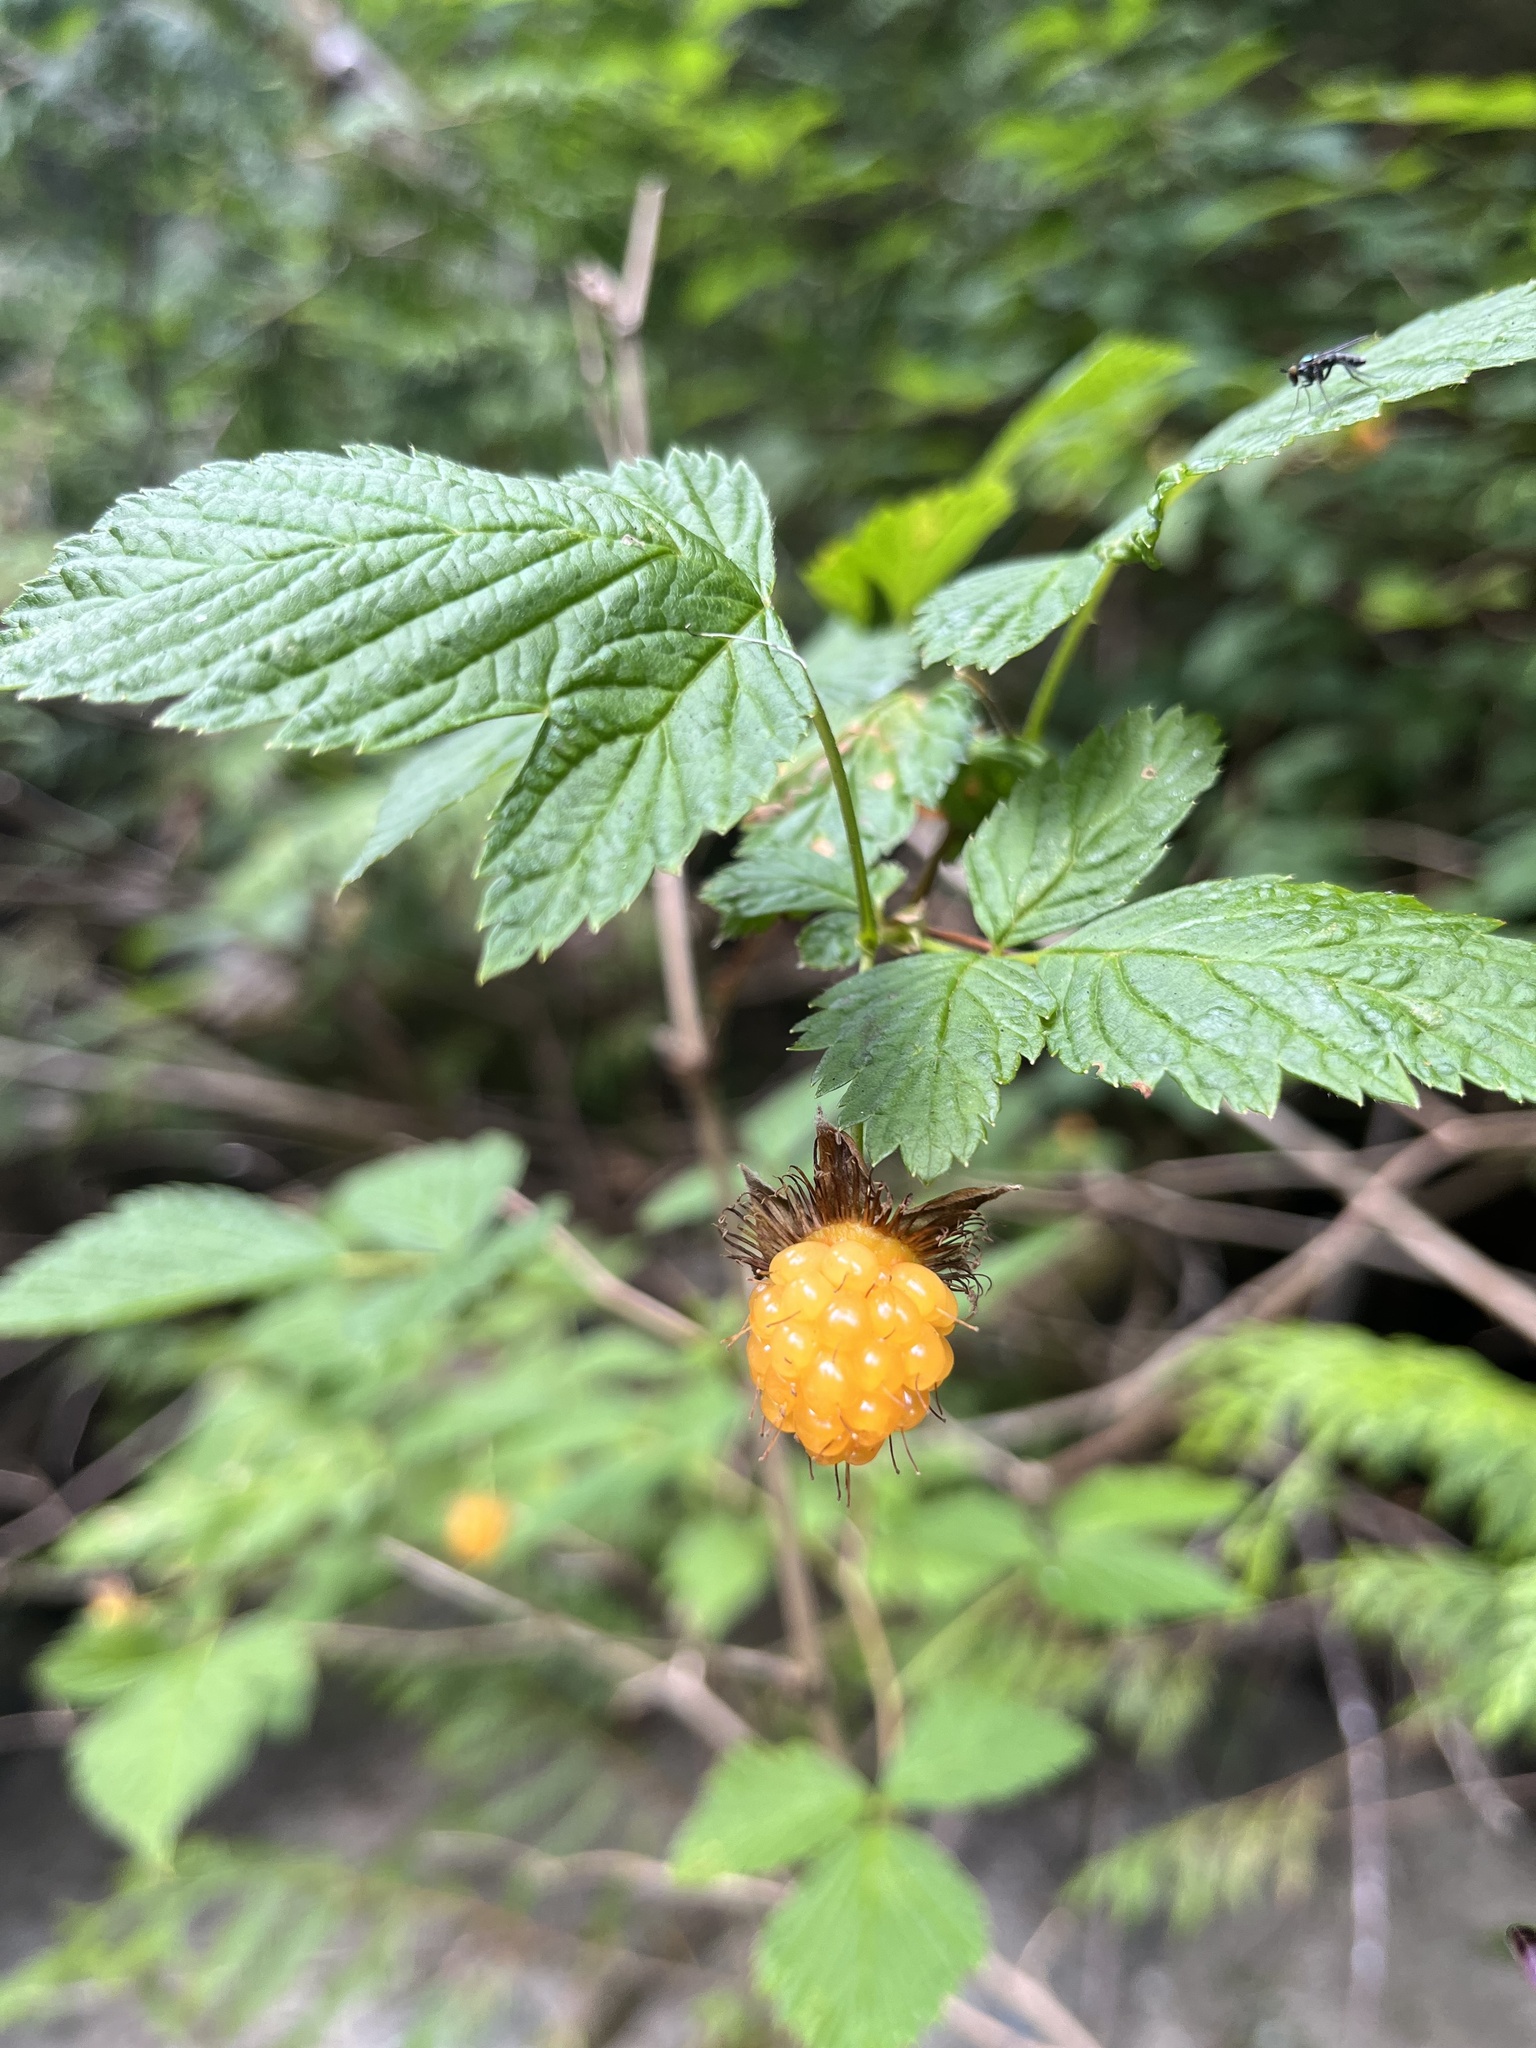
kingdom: Plantae
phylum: Tracheophyta
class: Magnoliopsida
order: Rosales
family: Rosaceae
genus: Rubus
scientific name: Rubus spectabilis
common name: Salmonberry
